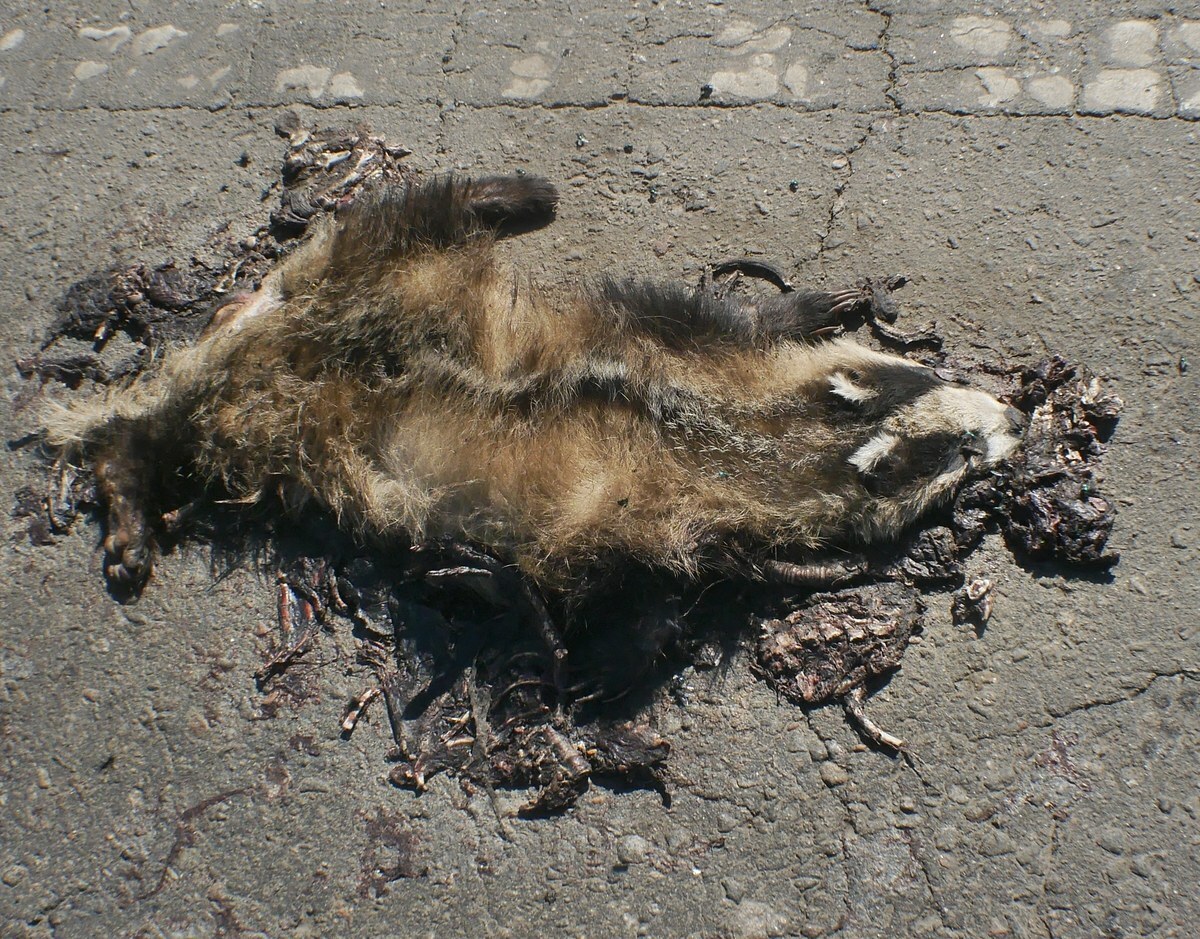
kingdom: Animalia
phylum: Chordata
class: Mammalia
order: Carnivora
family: Mustelidae
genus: Meles
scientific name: Meles meles
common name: Eurasian badger
